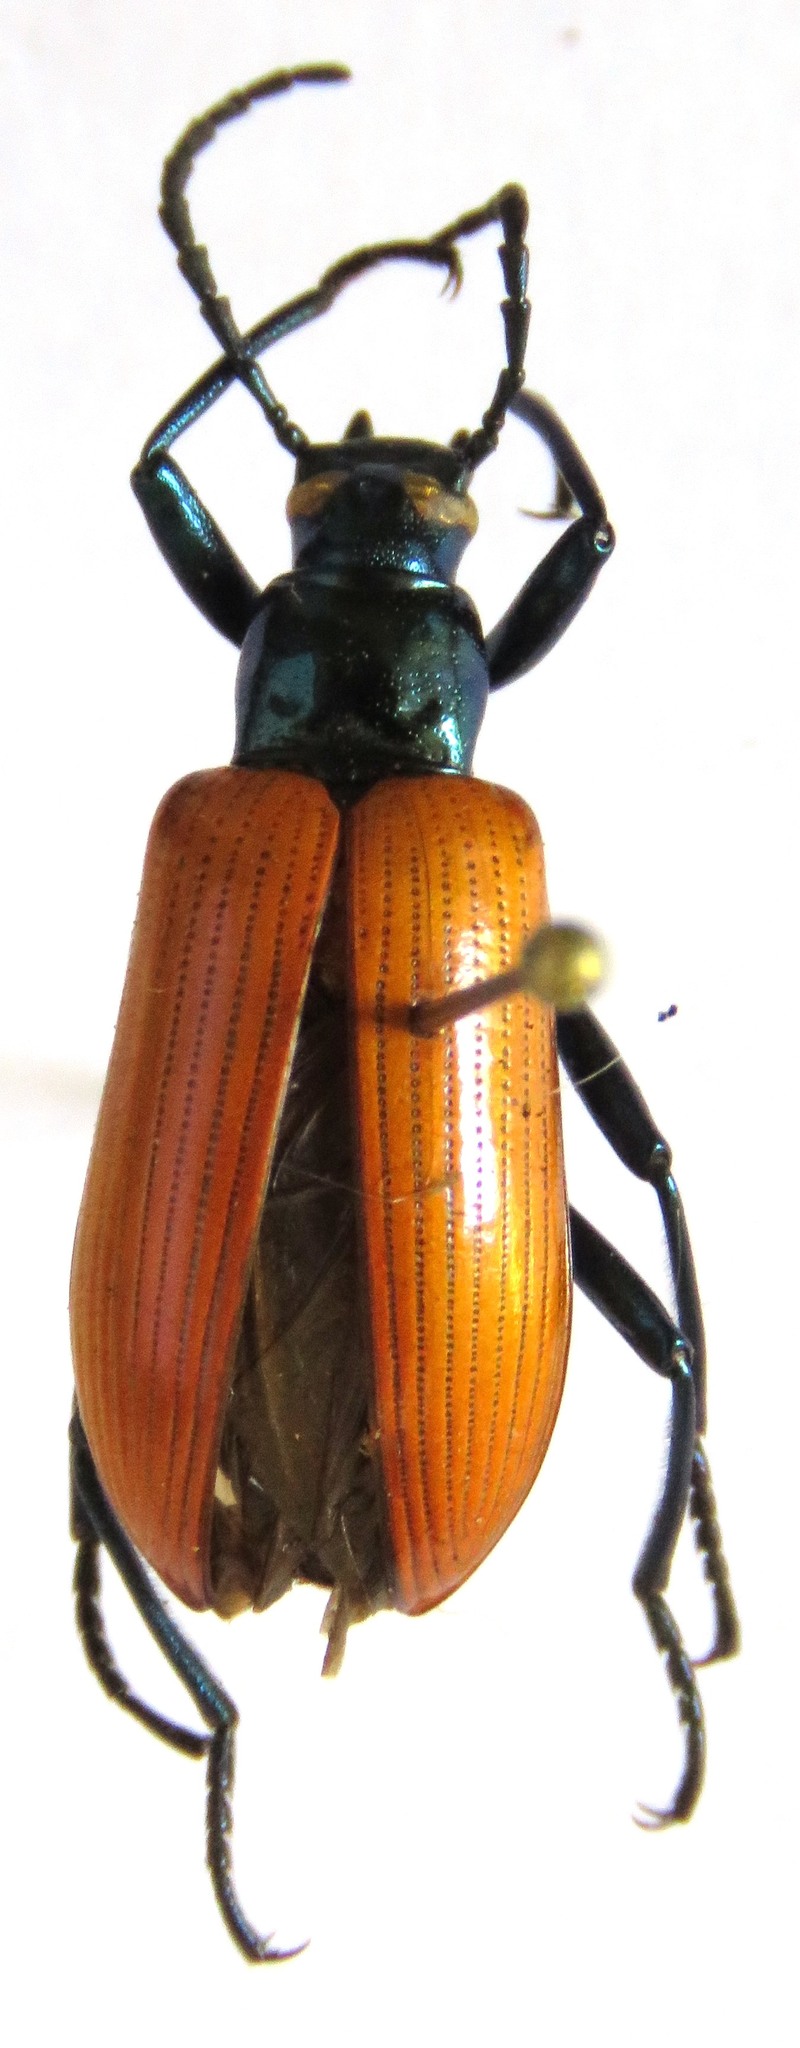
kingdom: Animalia
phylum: Arthropoda
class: Insecta
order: Coleoptera
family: Tenebrionidae
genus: Strongylium
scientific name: Strongylium
